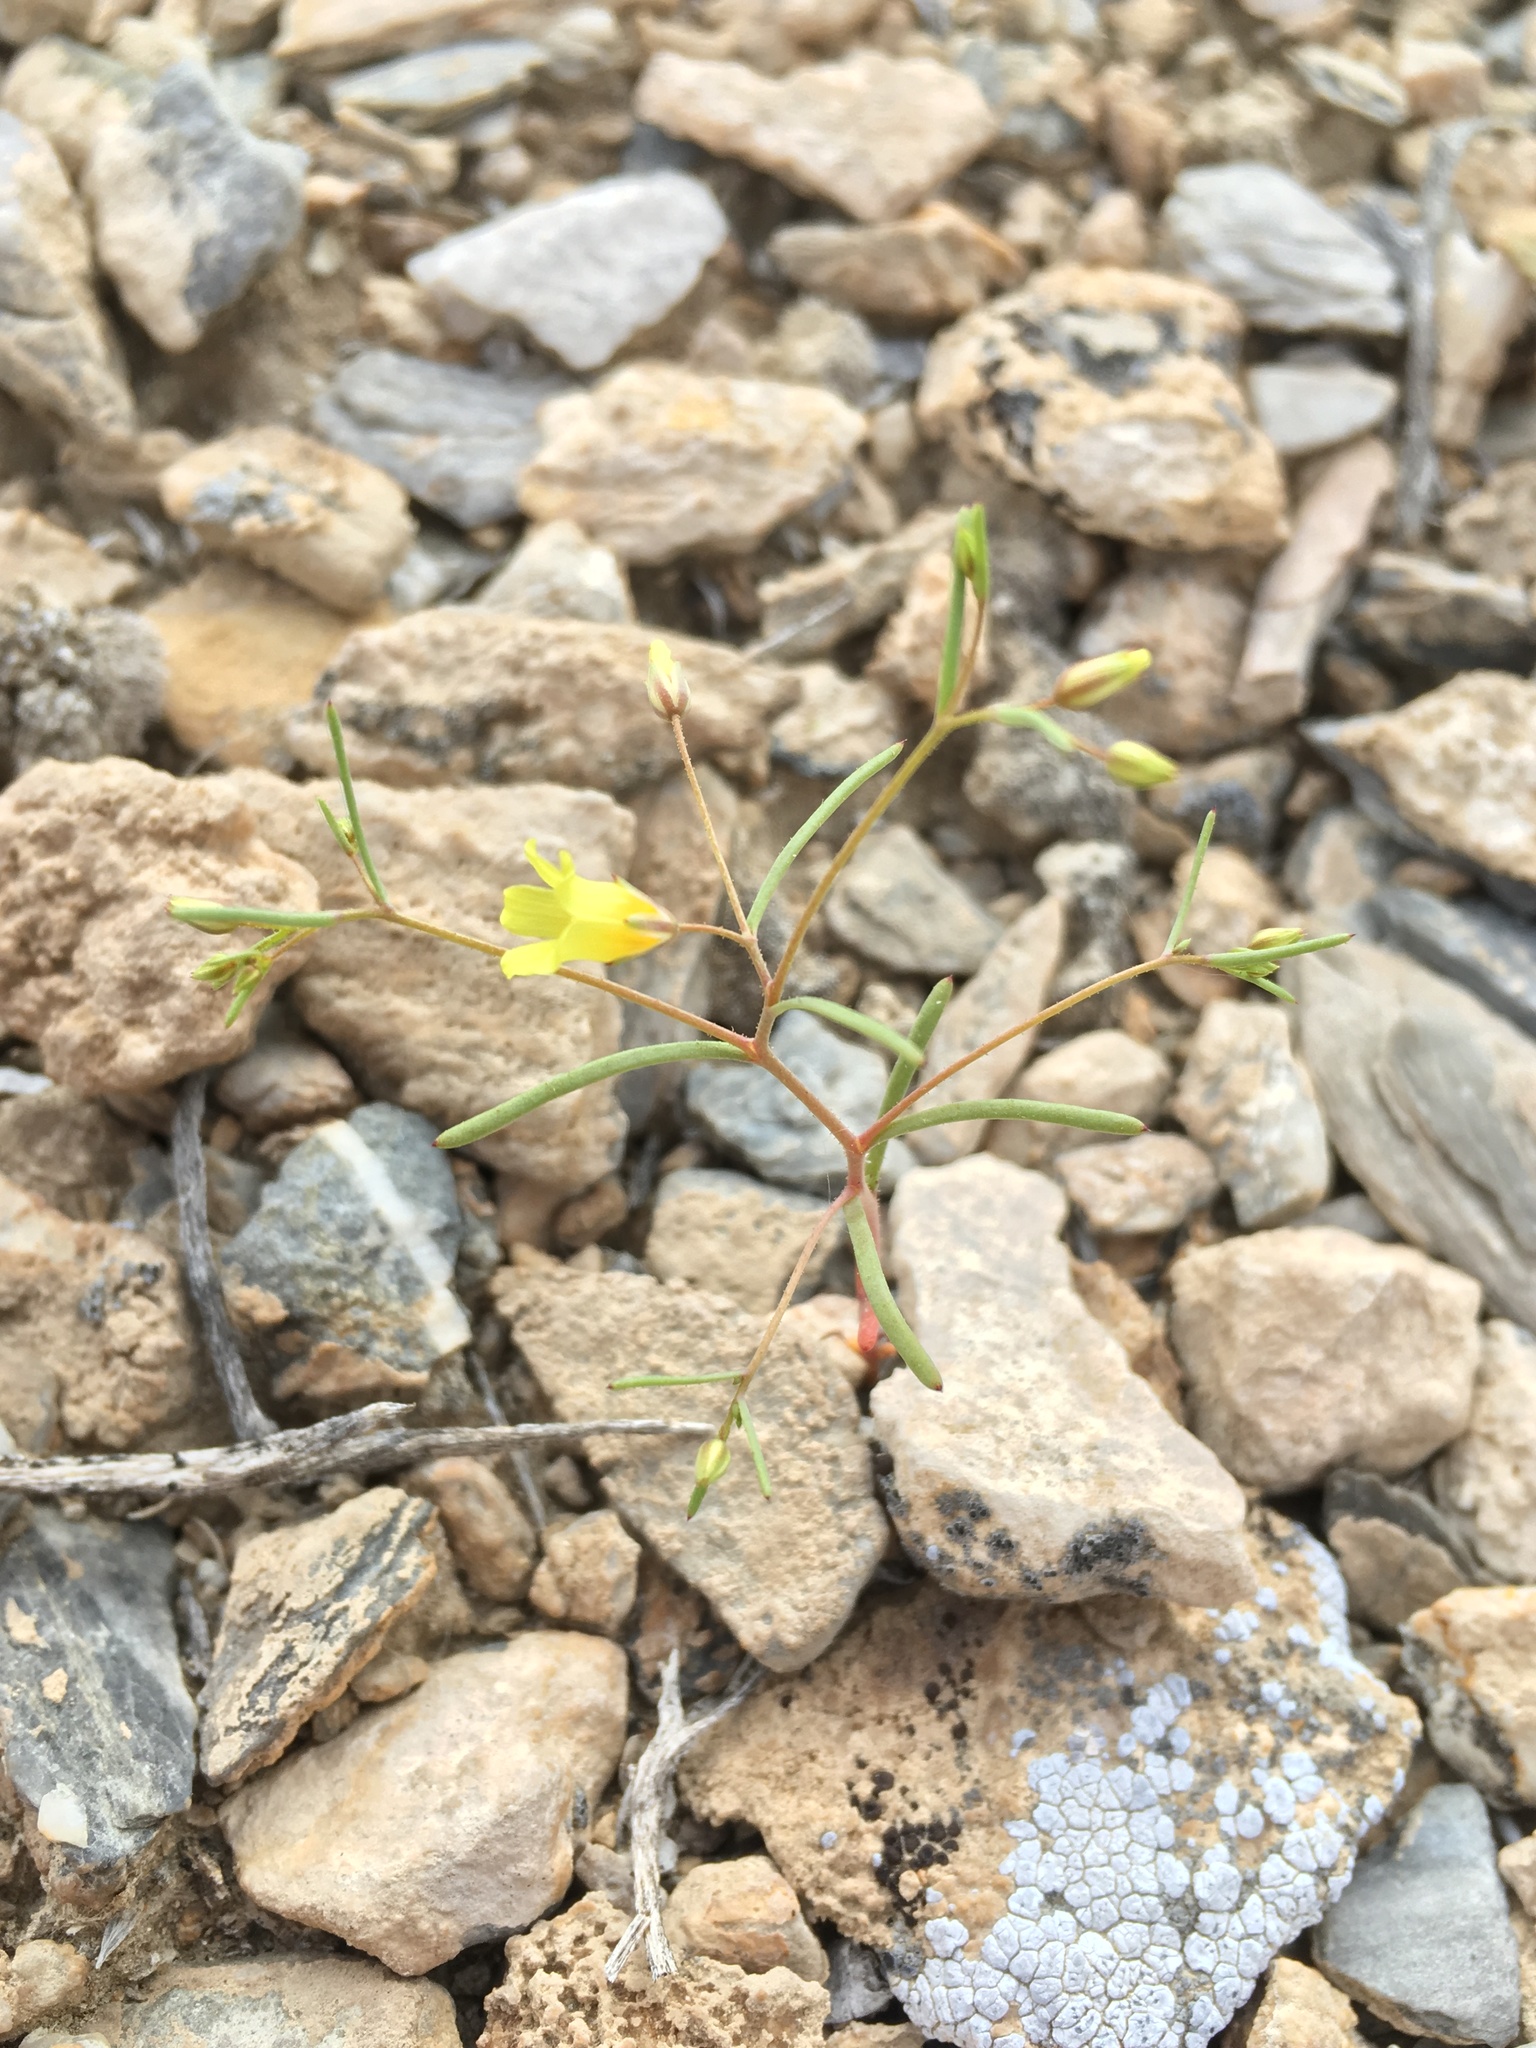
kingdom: Plantae
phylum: Tracheophyta
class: Magnoliopsida
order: Ericales
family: Polemoniaceae
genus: Linanthus
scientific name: Linanthus filiformis
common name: Yellow gilia
